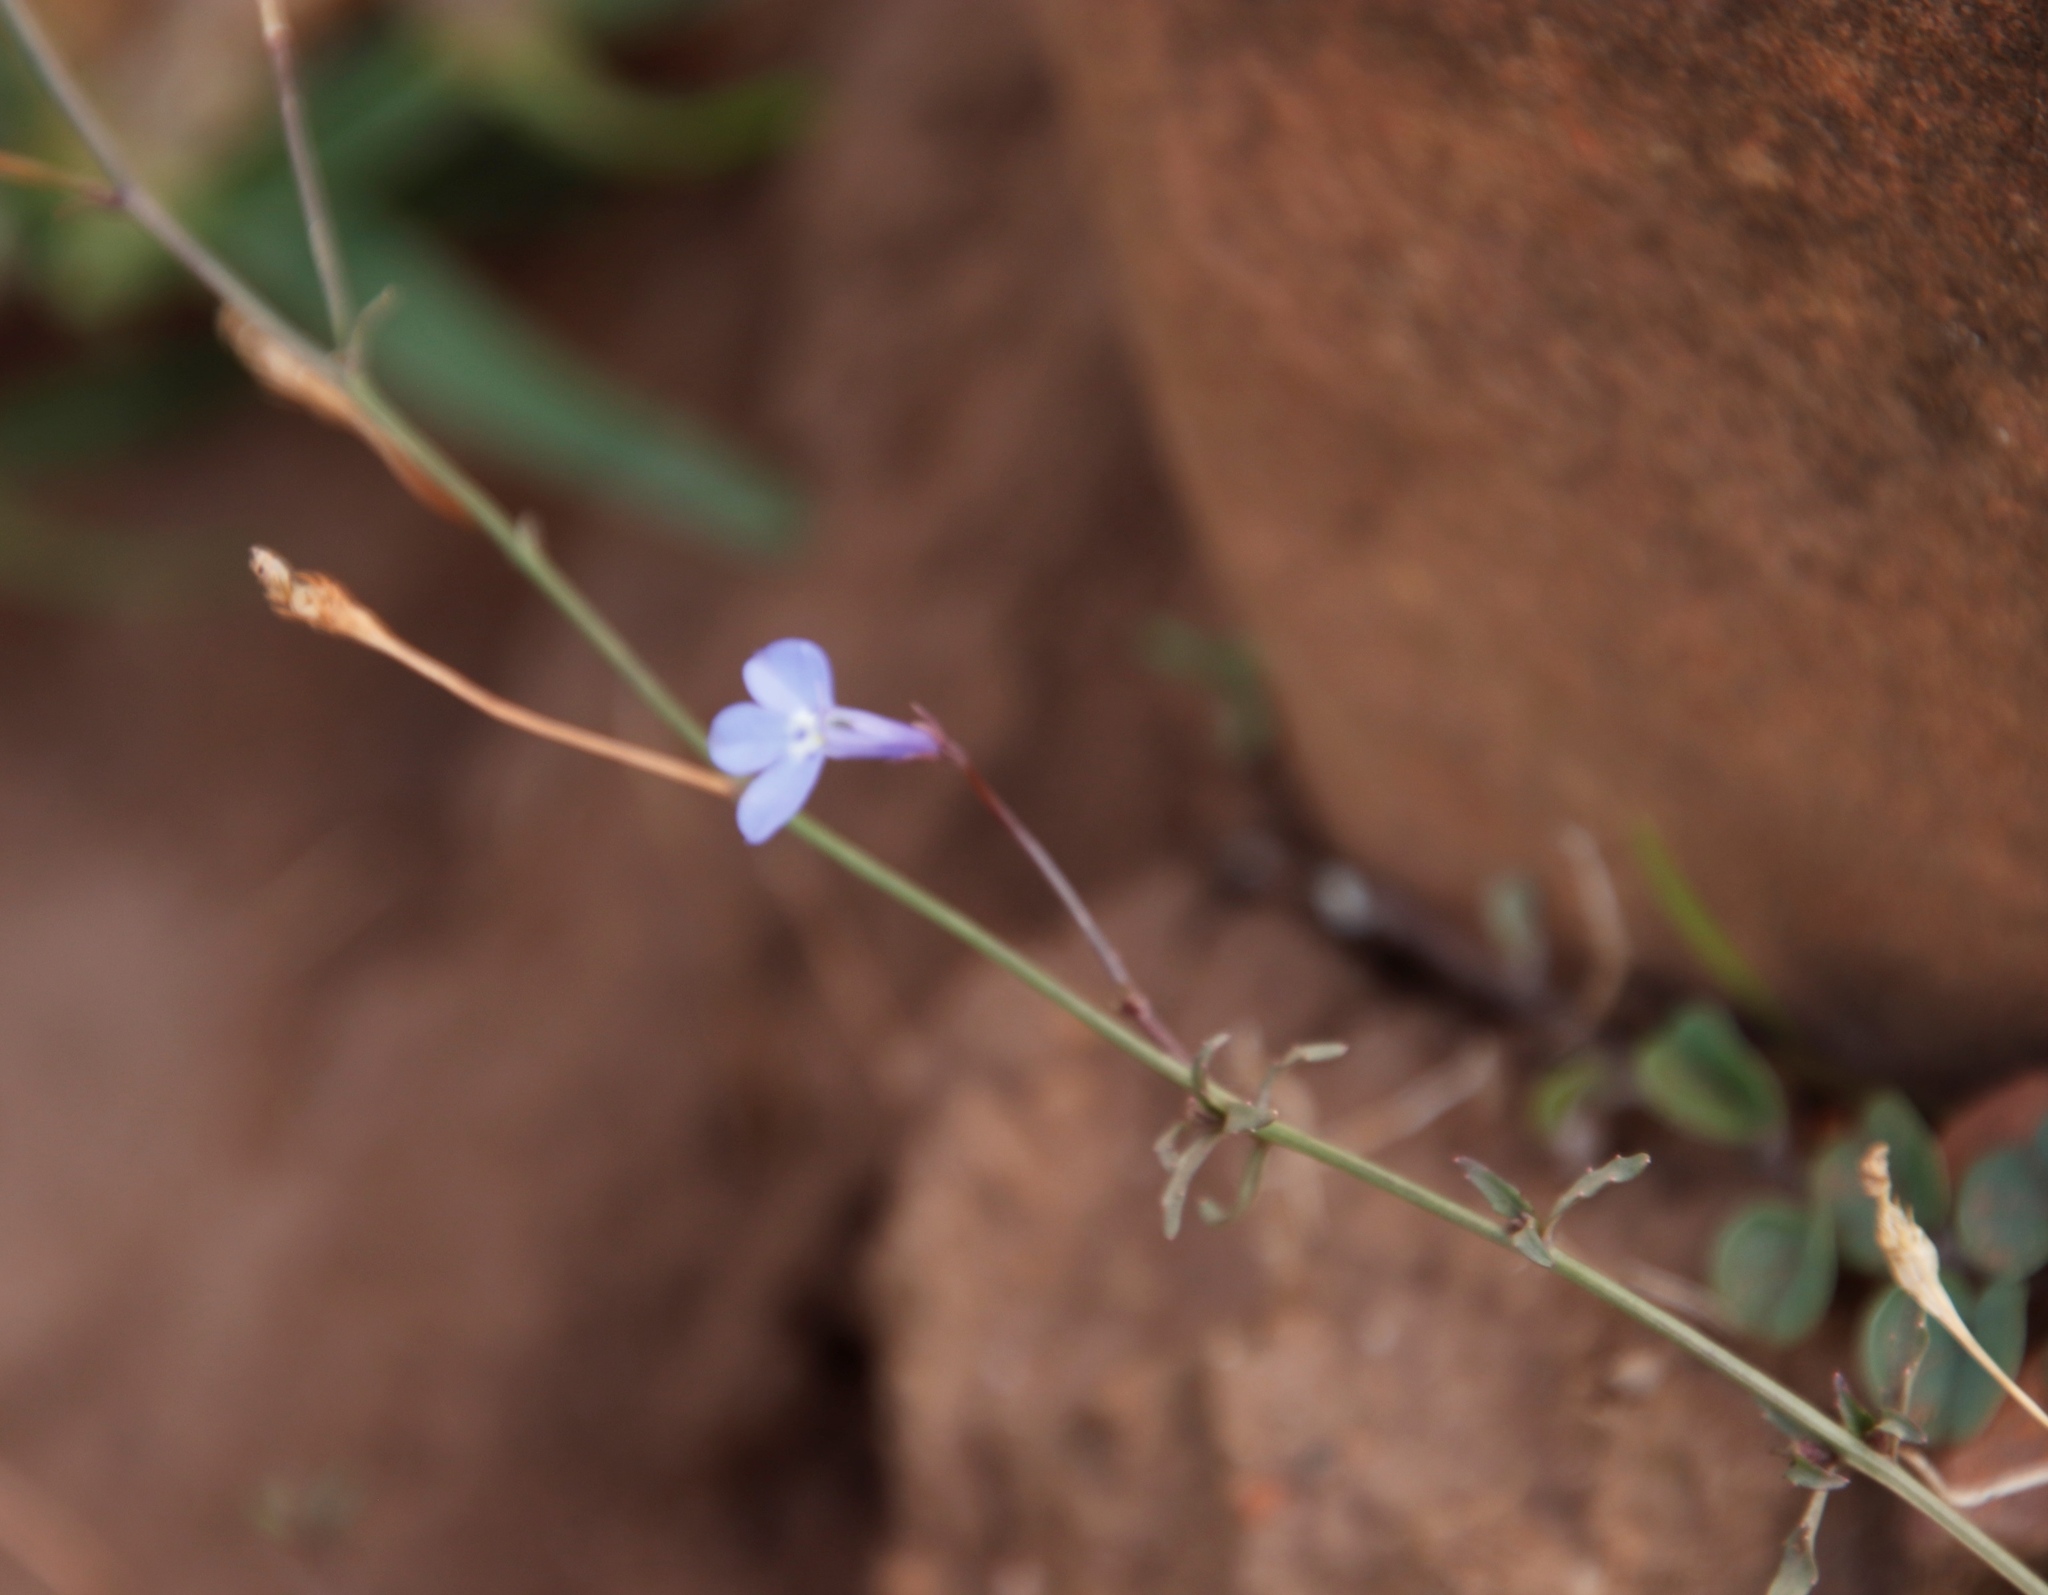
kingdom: Plantae
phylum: Tracheophyta
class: Magnoliopsida
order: Asterales
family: Campanulaceae
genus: Lobelia
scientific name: Lobelia erinus
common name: Edging lobelia
